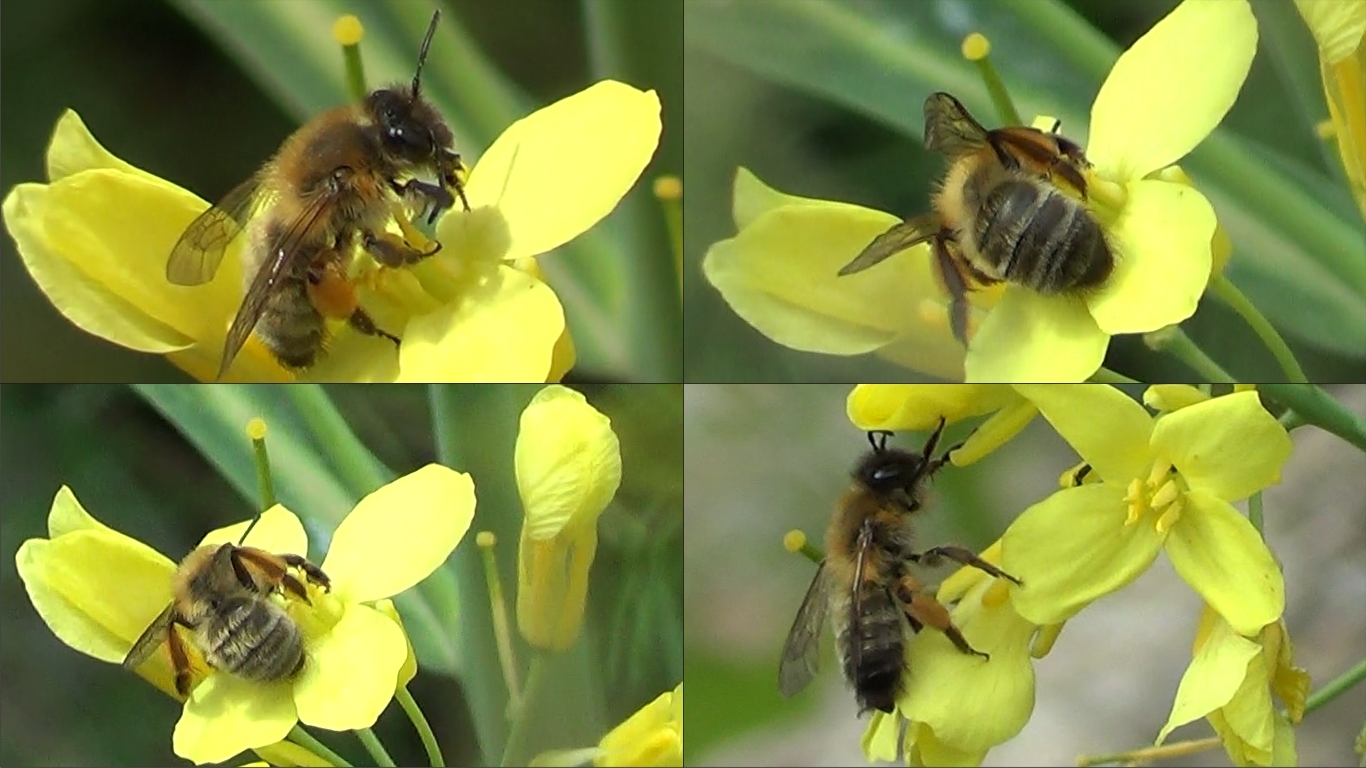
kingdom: Animalia
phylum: Arthropoda
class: Insecta
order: Hymenoptera
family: Andrenidae
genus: Andrena
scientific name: Andrena nigroaenea
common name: Buffish mining bee
